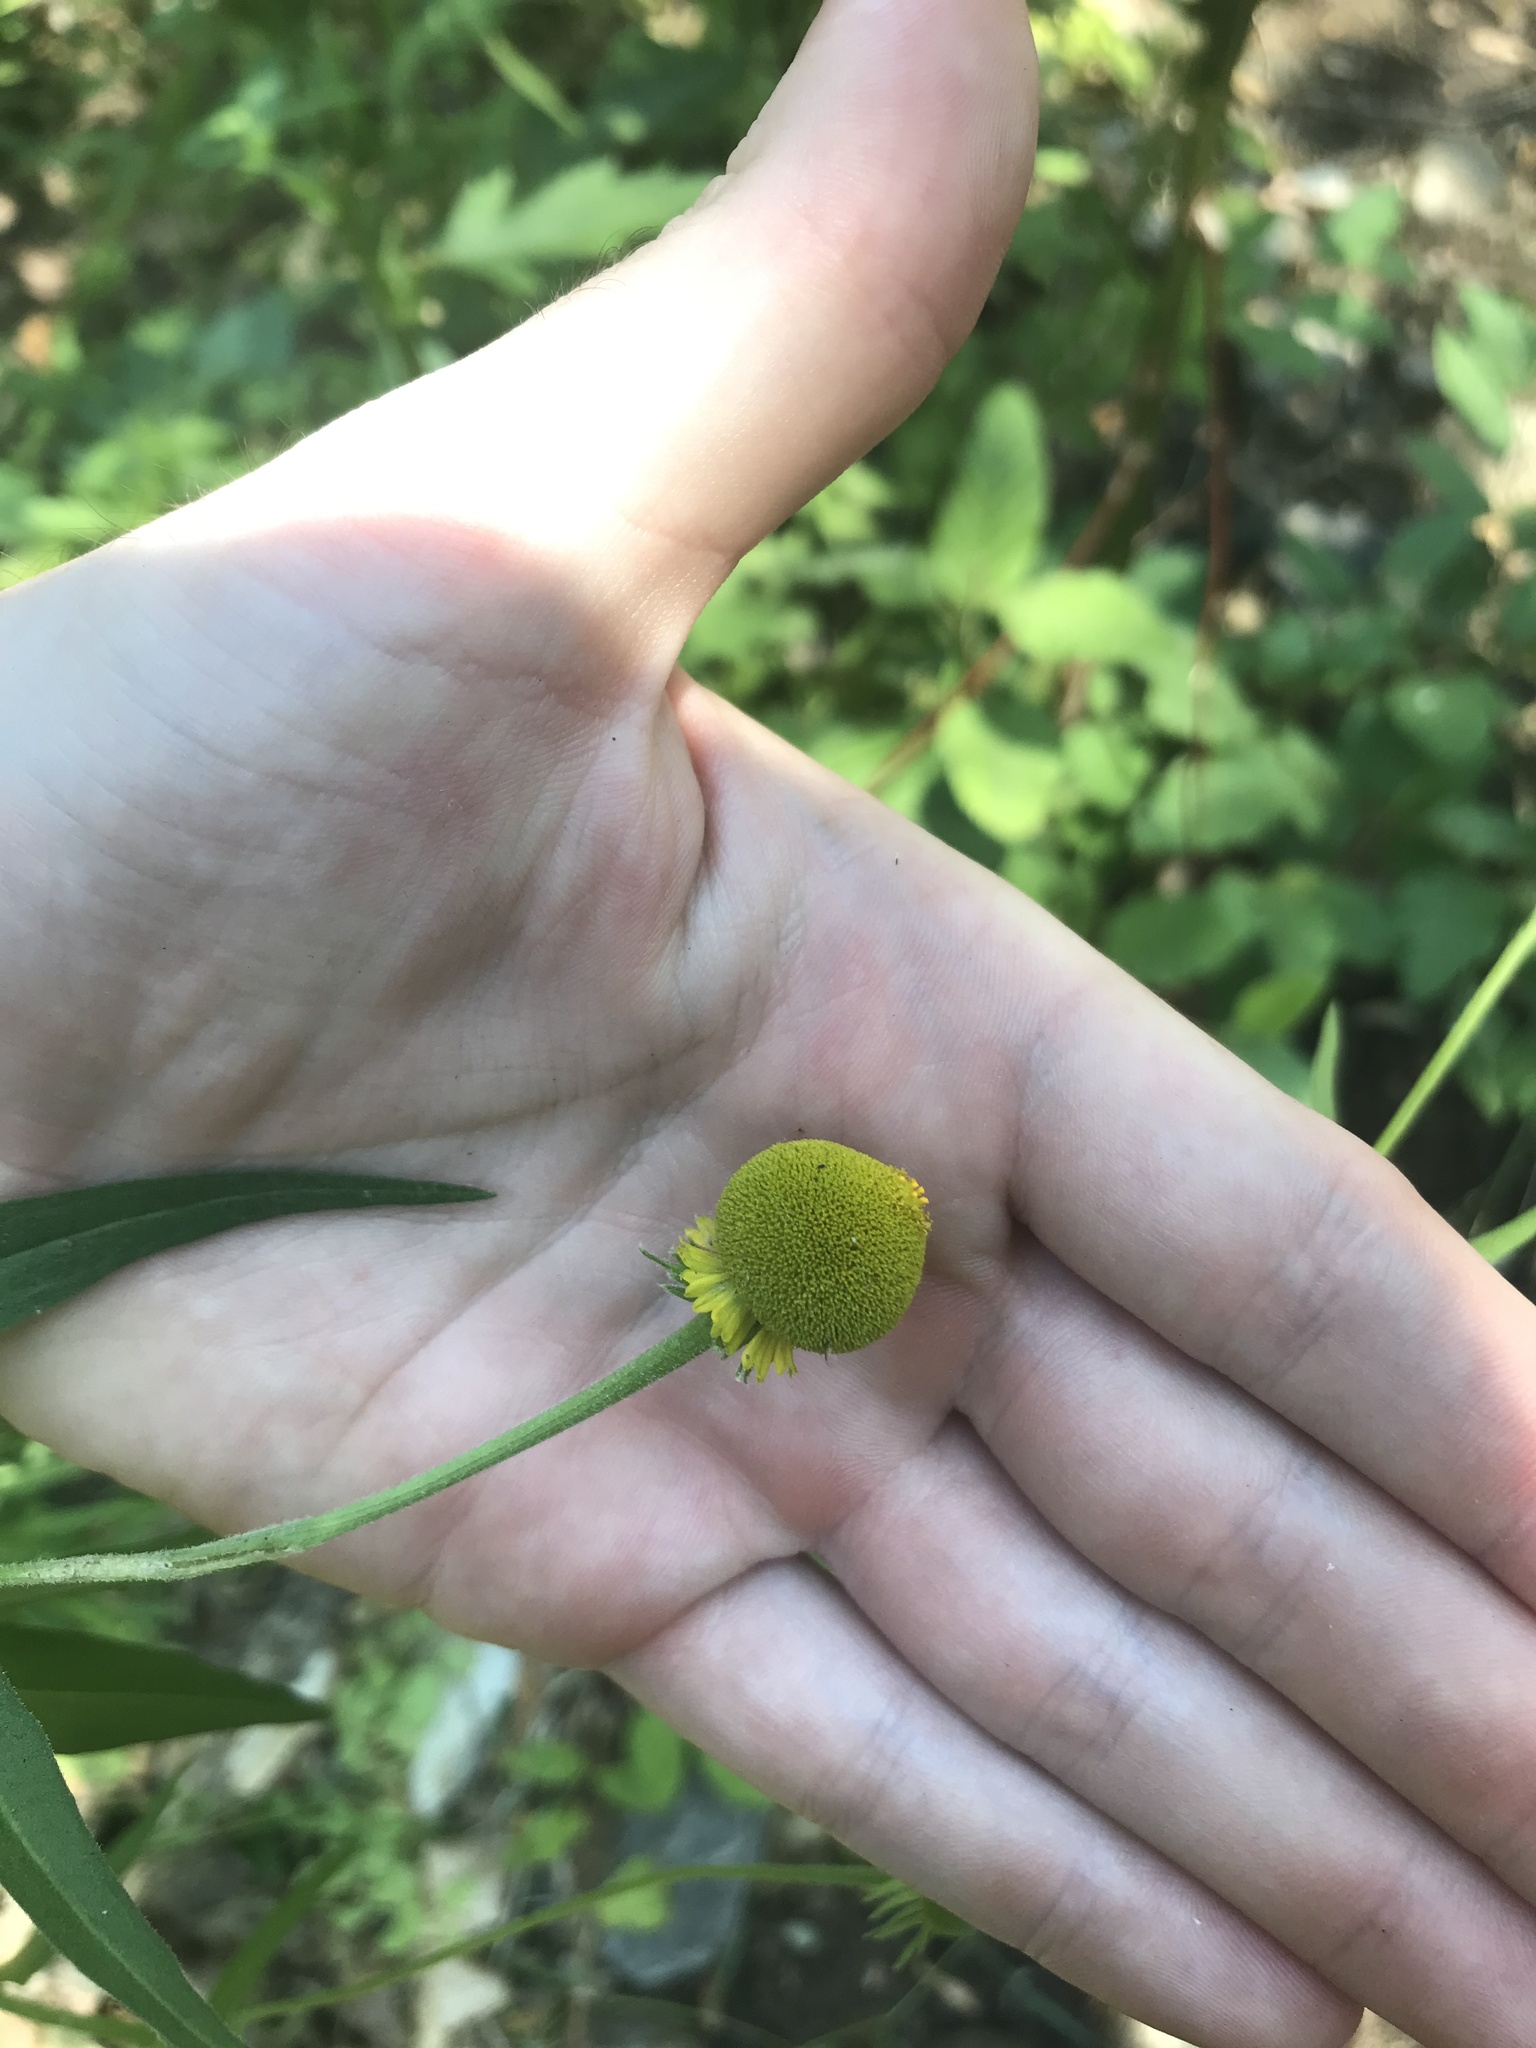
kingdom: Plantae
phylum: Tracheophyta
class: Magnoliopsida
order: Asterales
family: Asteraceae
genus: Helenium
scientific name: Helenium puberulum
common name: Sneezewort
